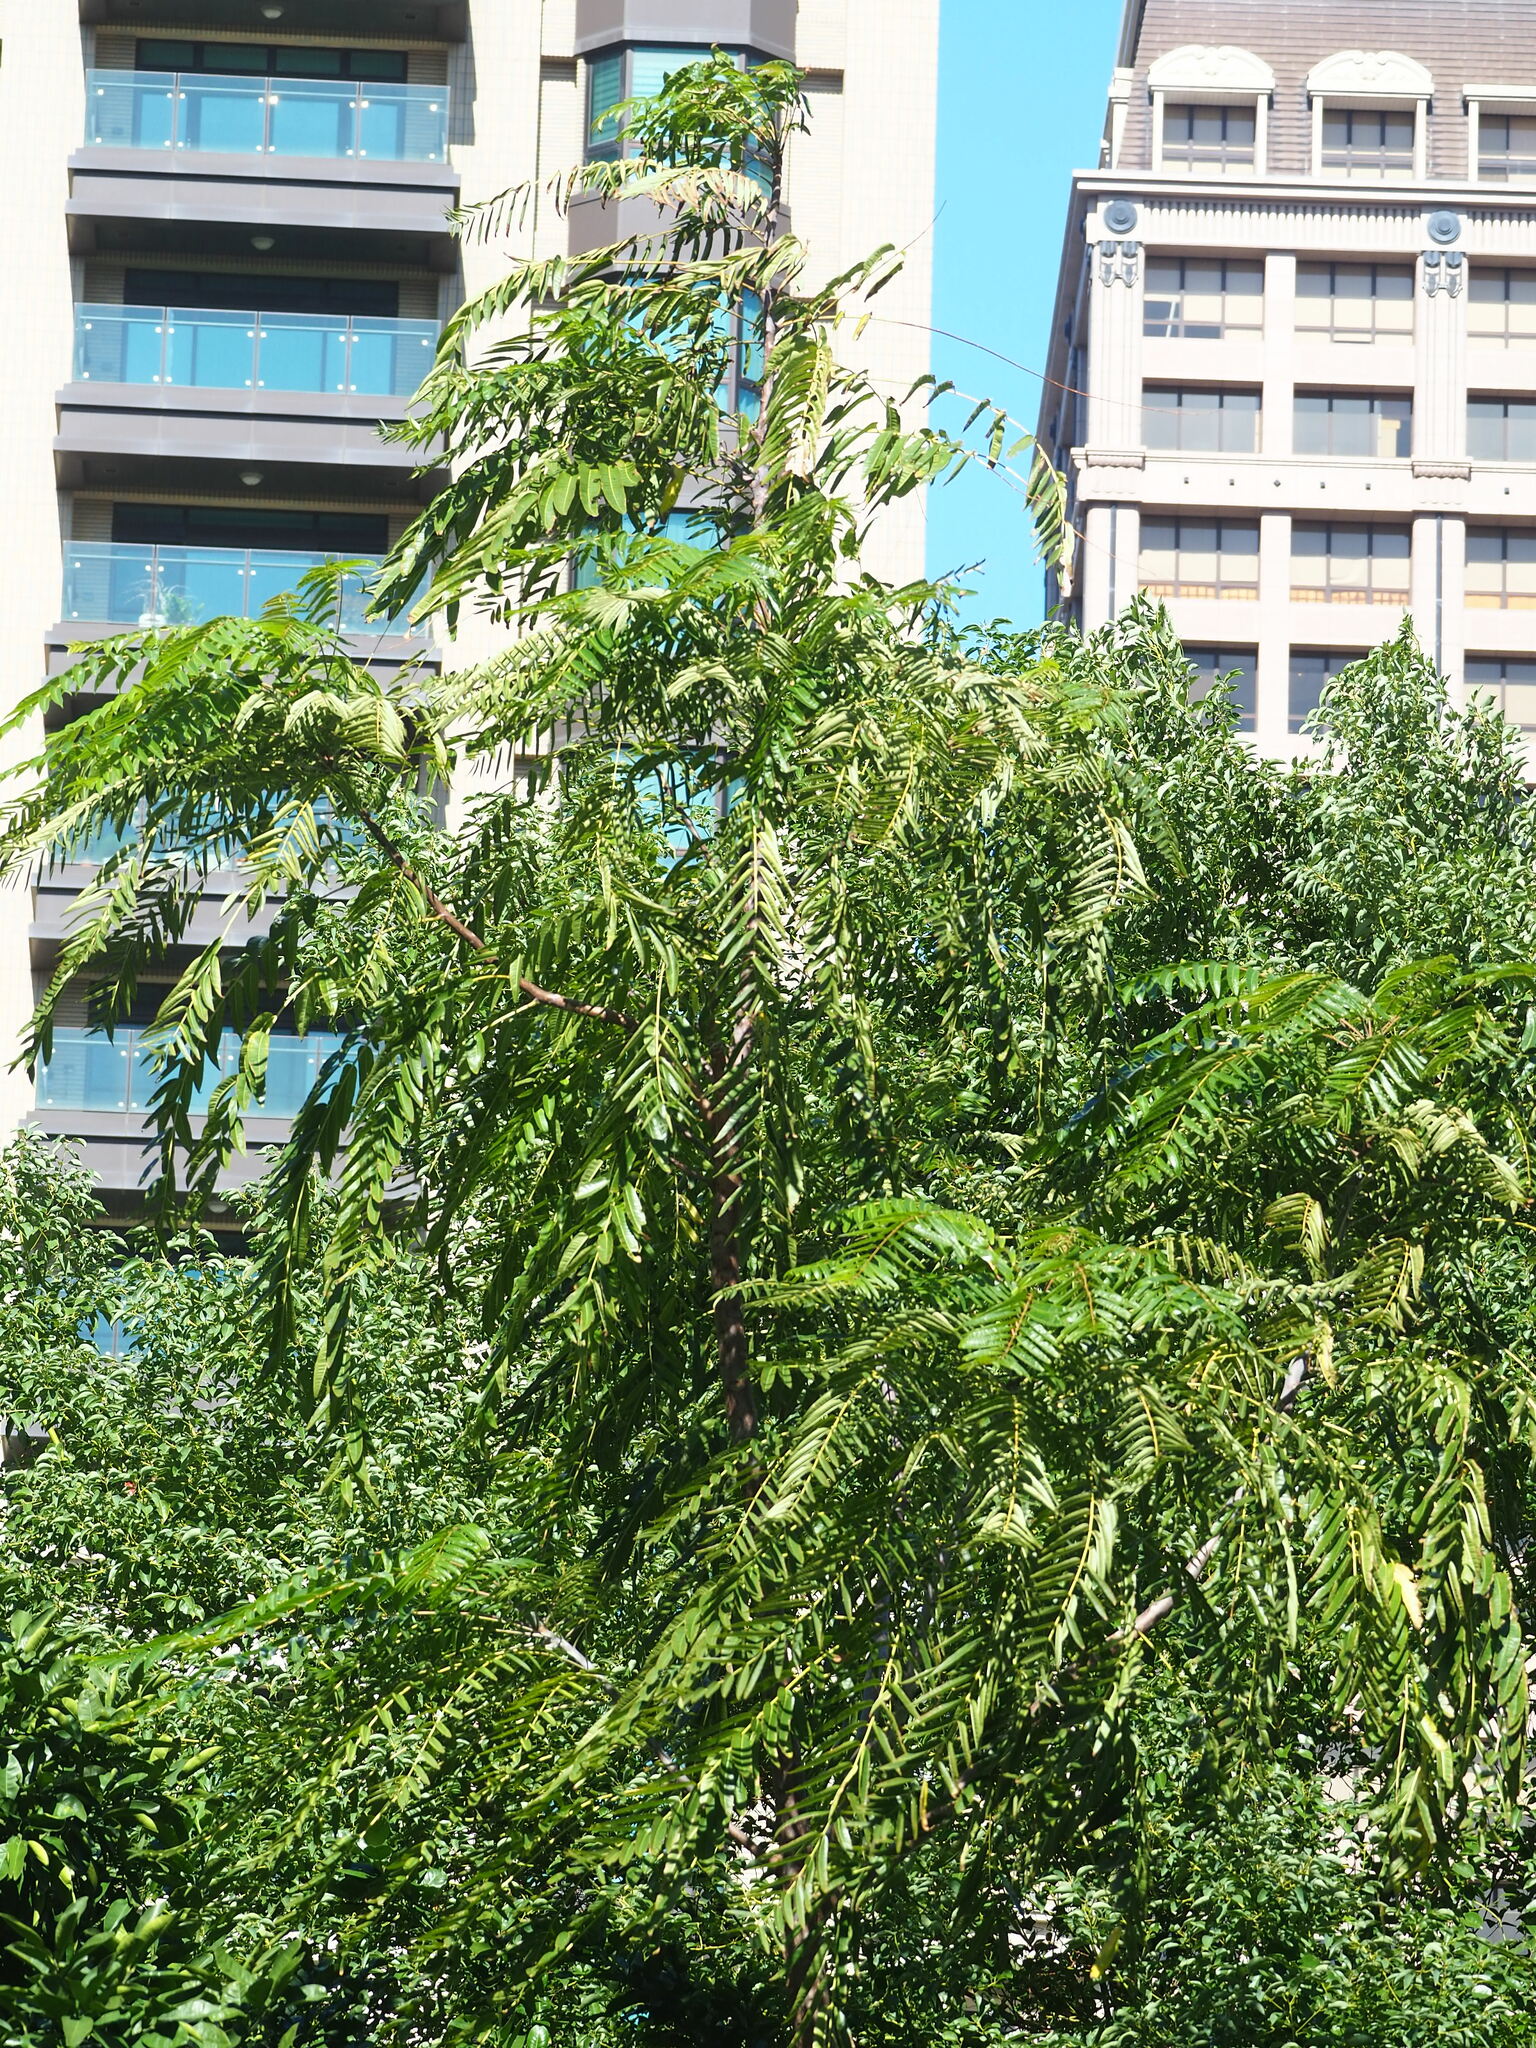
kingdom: Plantae
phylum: Tracheophyta
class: Magnoliopsida
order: Sapindales
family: Meliaceae
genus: Toona
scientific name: Toona sinensis
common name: Red toon
